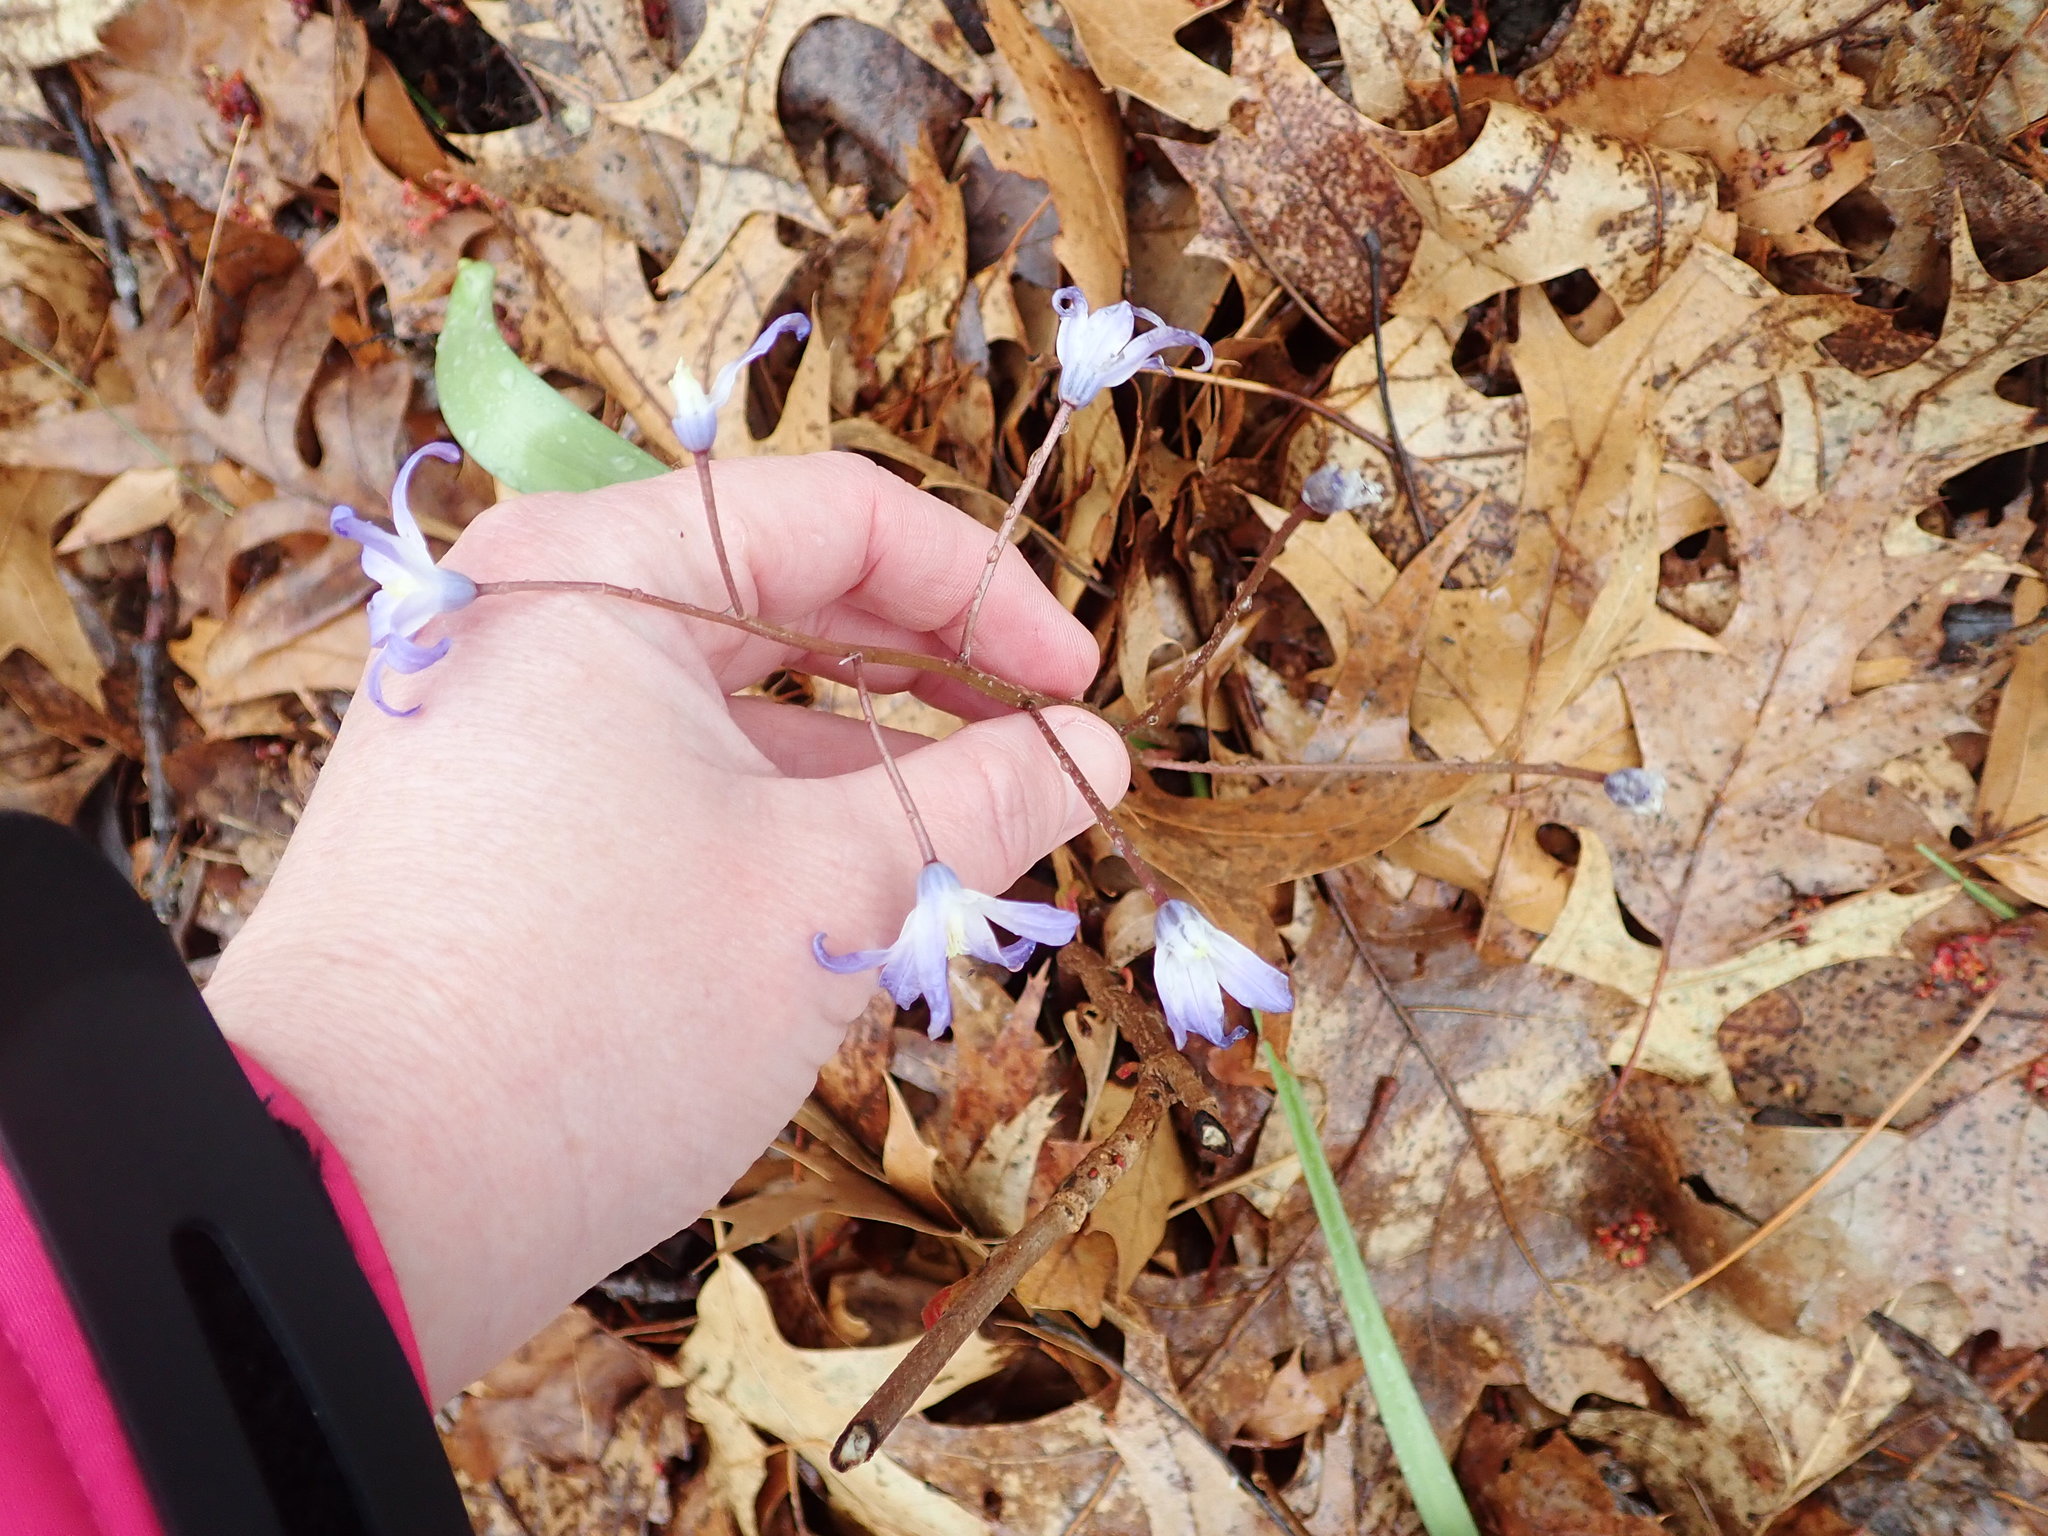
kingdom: Plantae
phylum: Tracheophyta
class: Liliopsida
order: Asparagales
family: Asparagaceae
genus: Scilla
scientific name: Scilla forbesii
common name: Glory-of-the-snow
